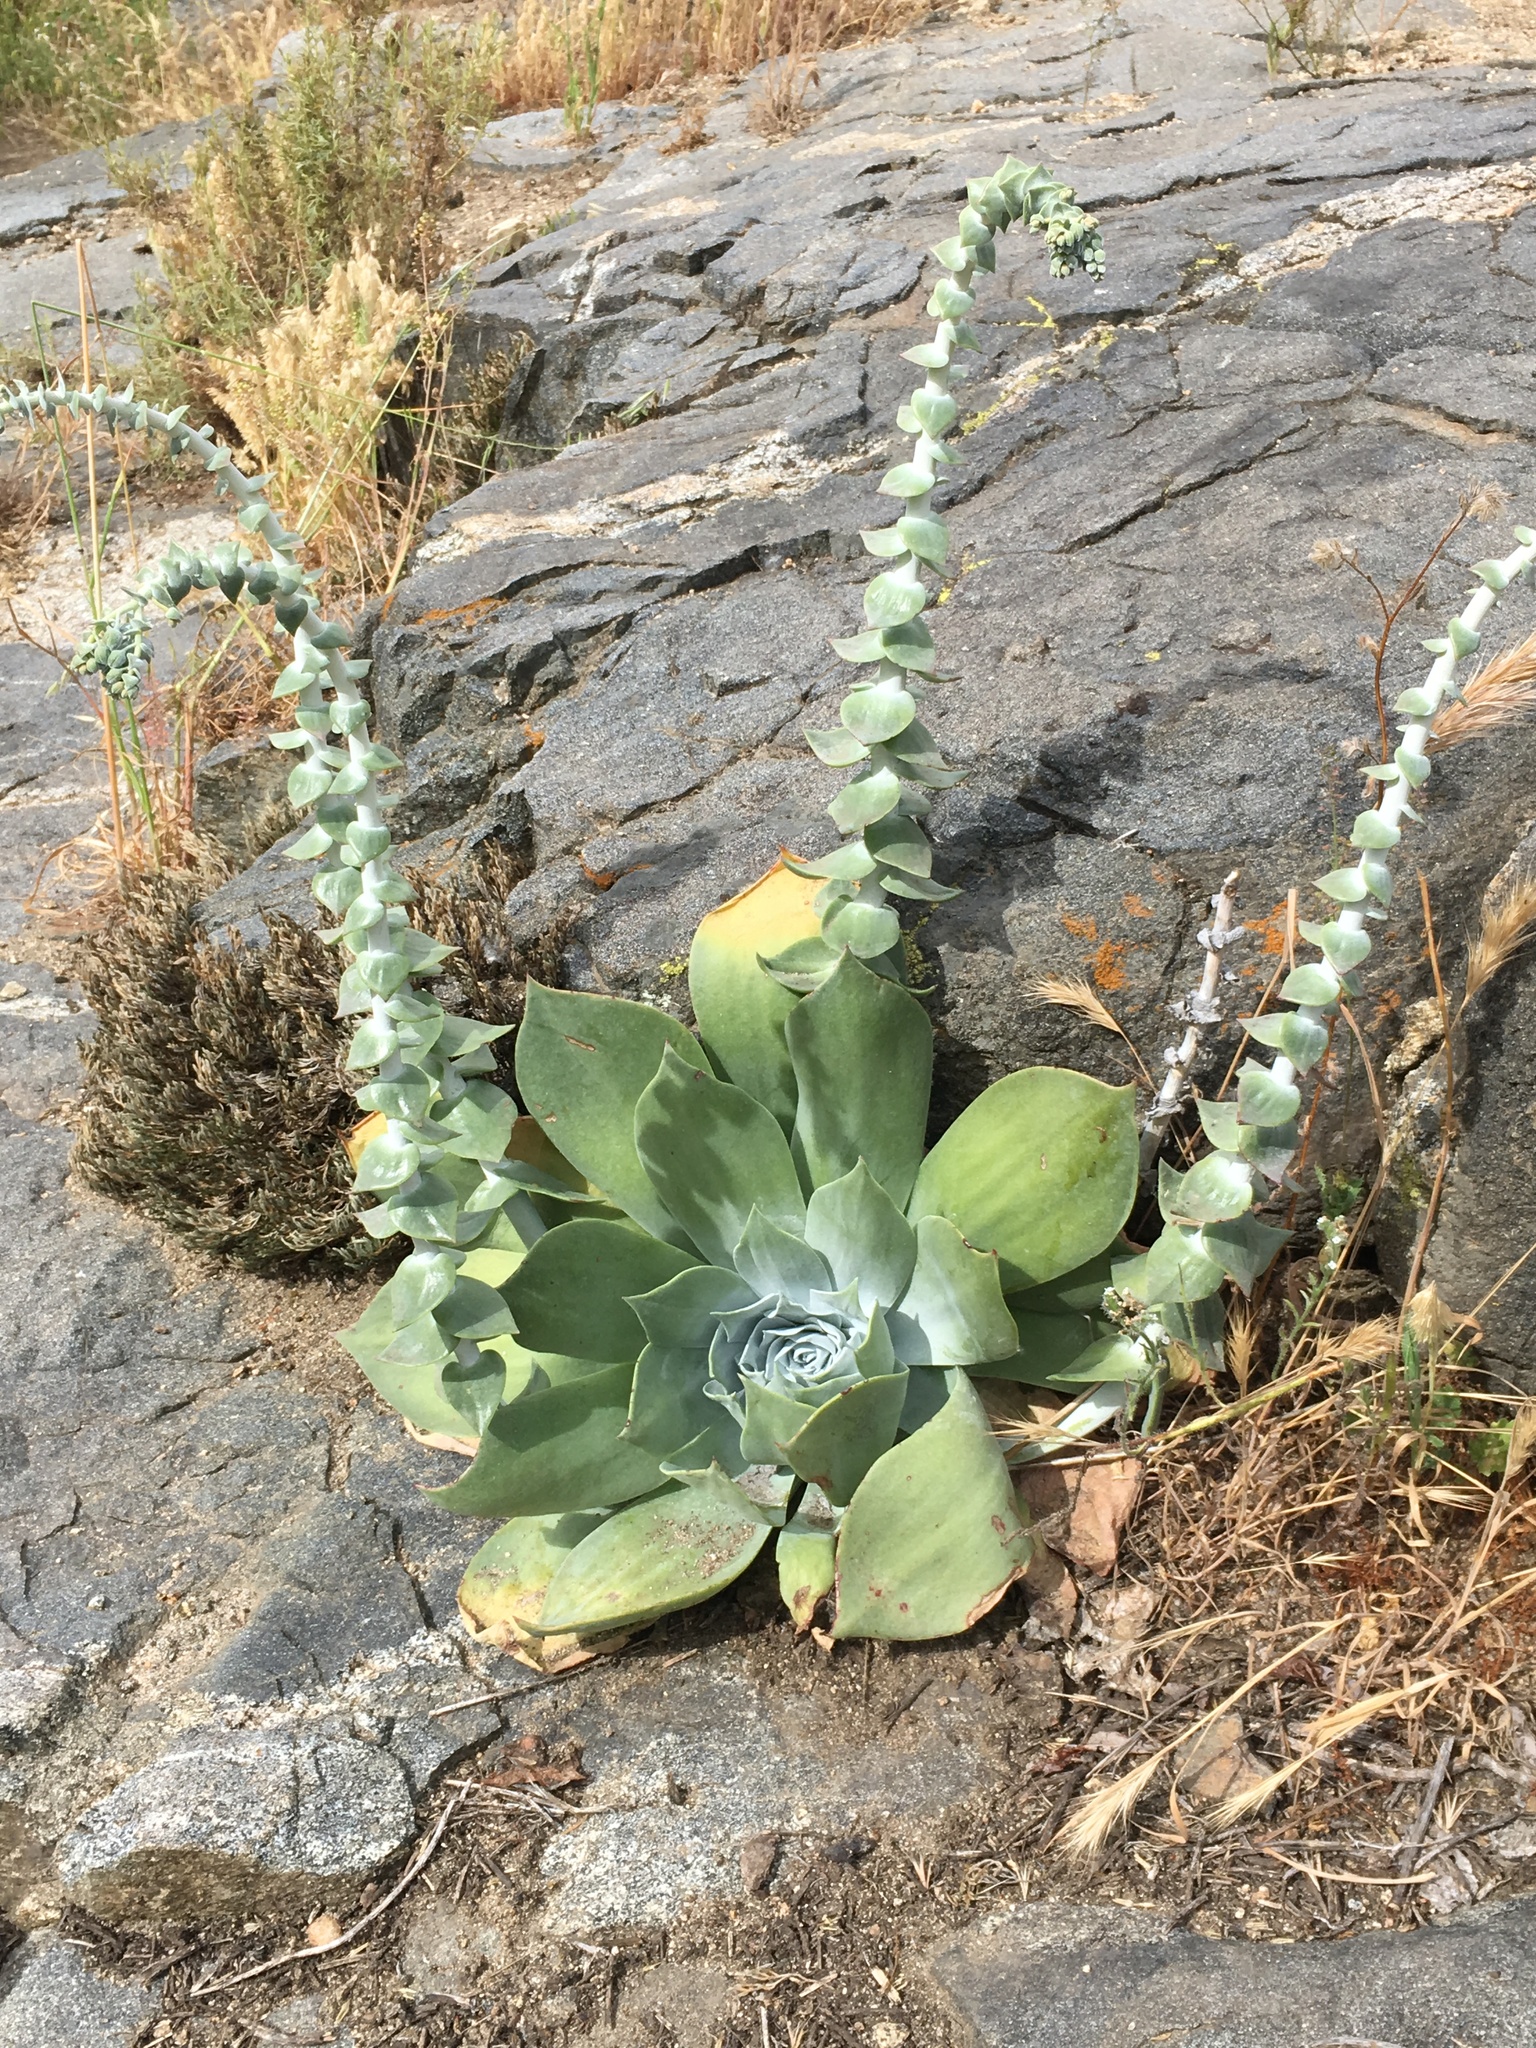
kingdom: Plantae
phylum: Tracheophyta
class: Magnoliopsida
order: Saxifragales
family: Crassulaceae
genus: Dudleya
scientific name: Dudleya pulverulenta
